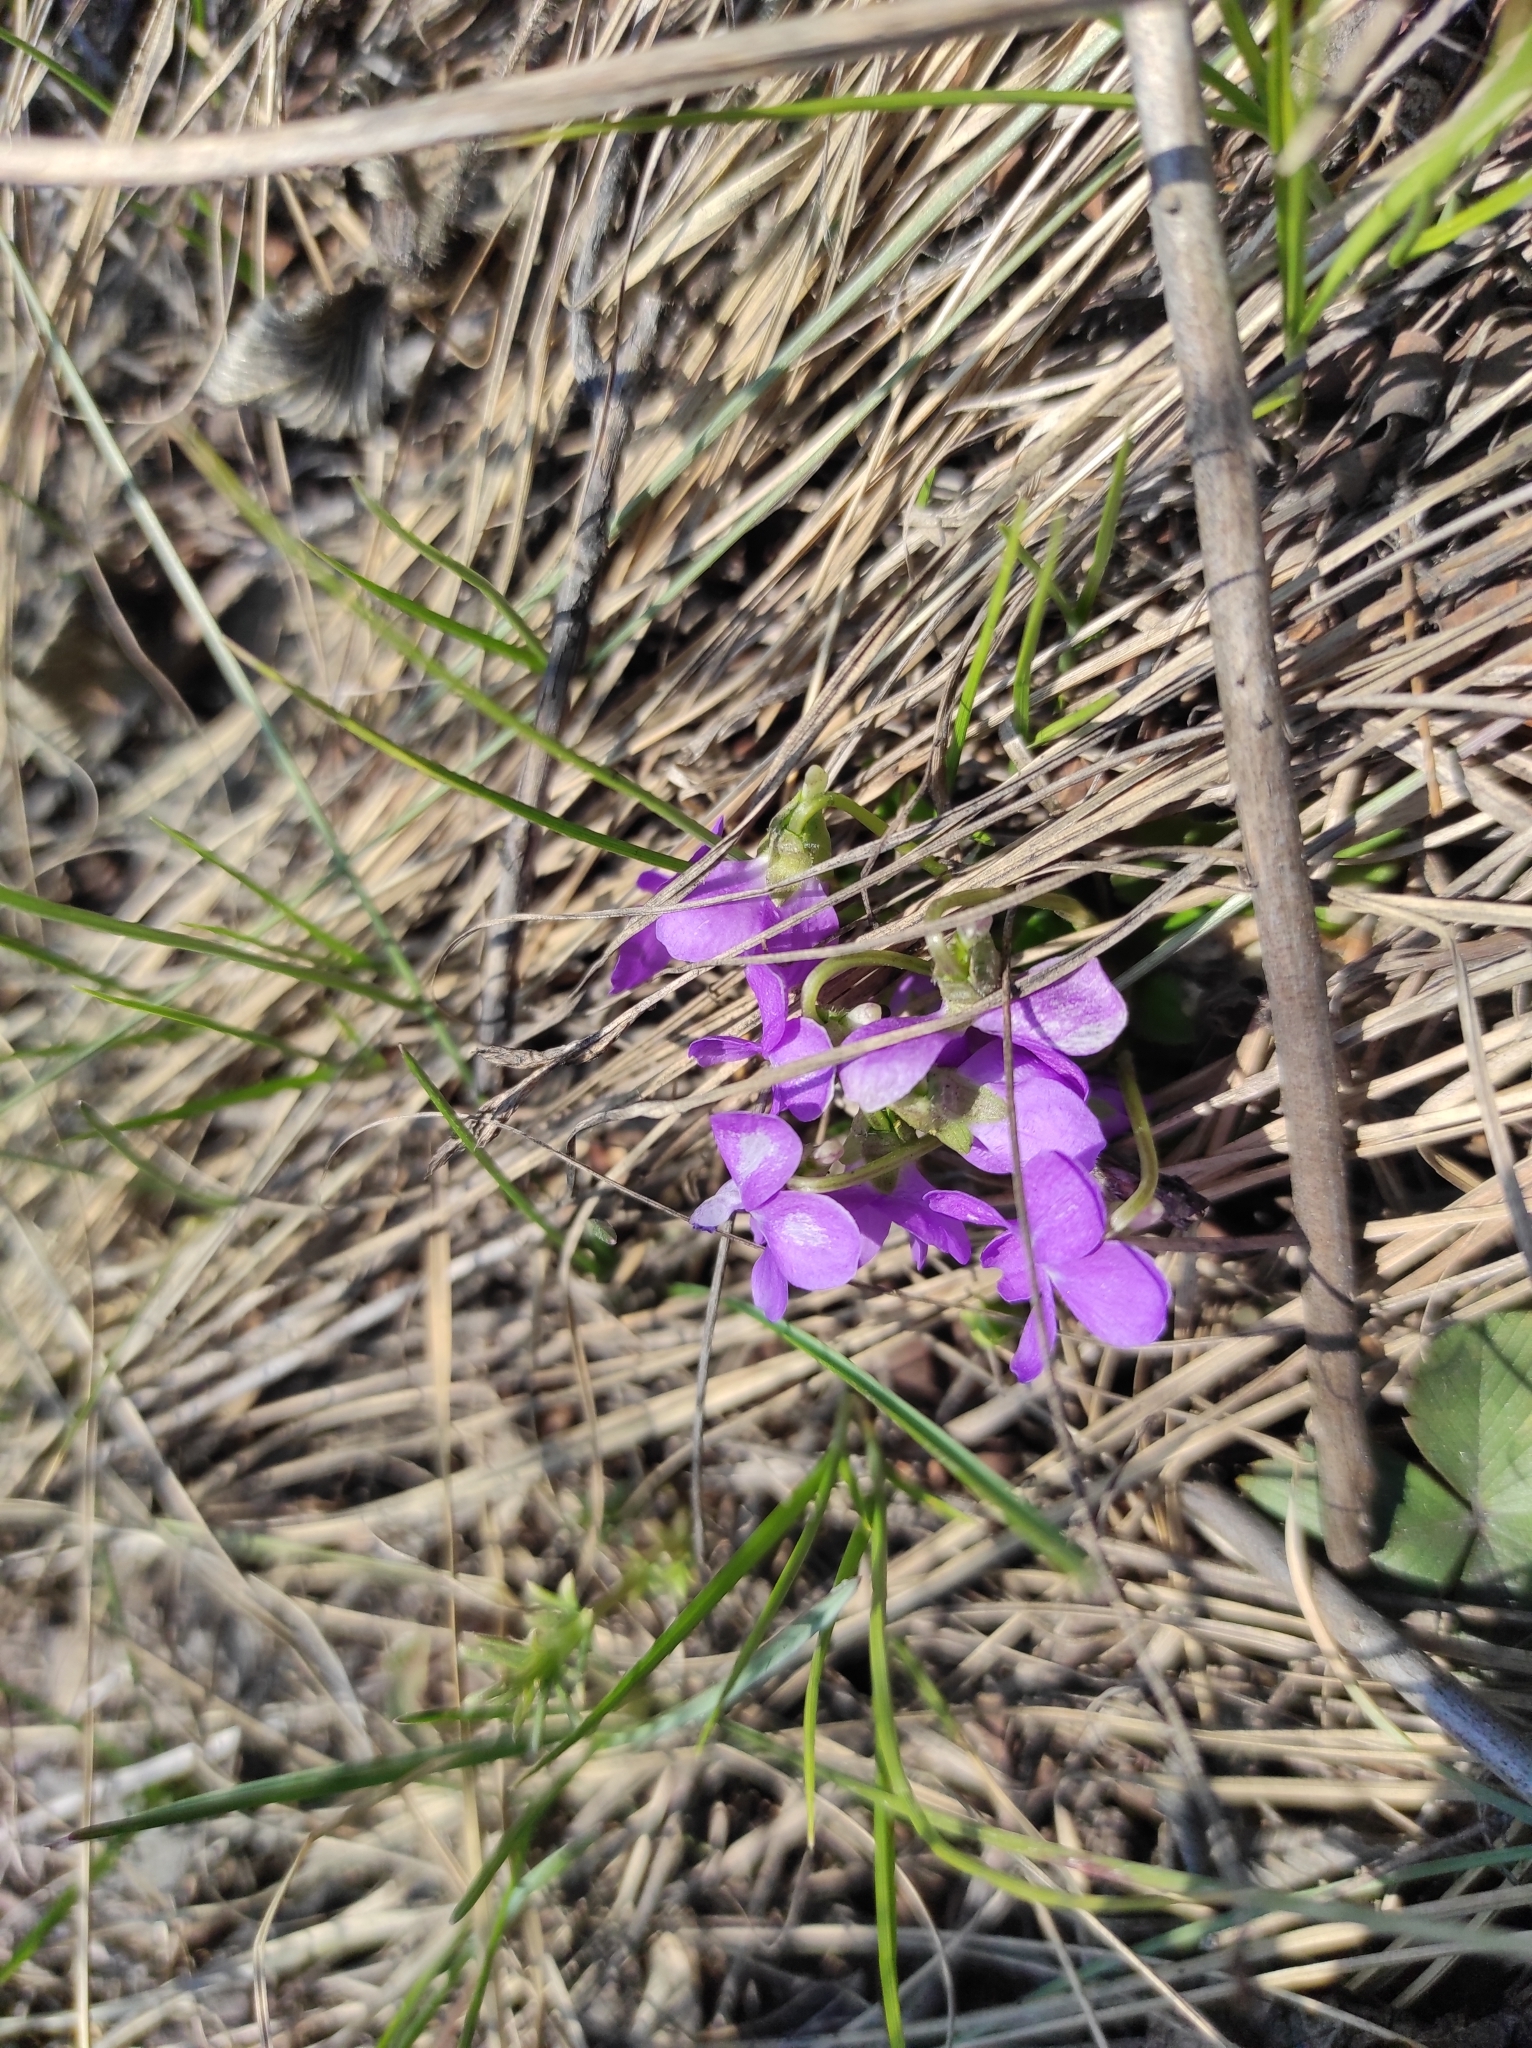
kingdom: Plantae
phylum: Tracheophyta
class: Magnoliopsida
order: Malpighiales
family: Violaceae
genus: Viola
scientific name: Viola hirta
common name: Hairy violet
